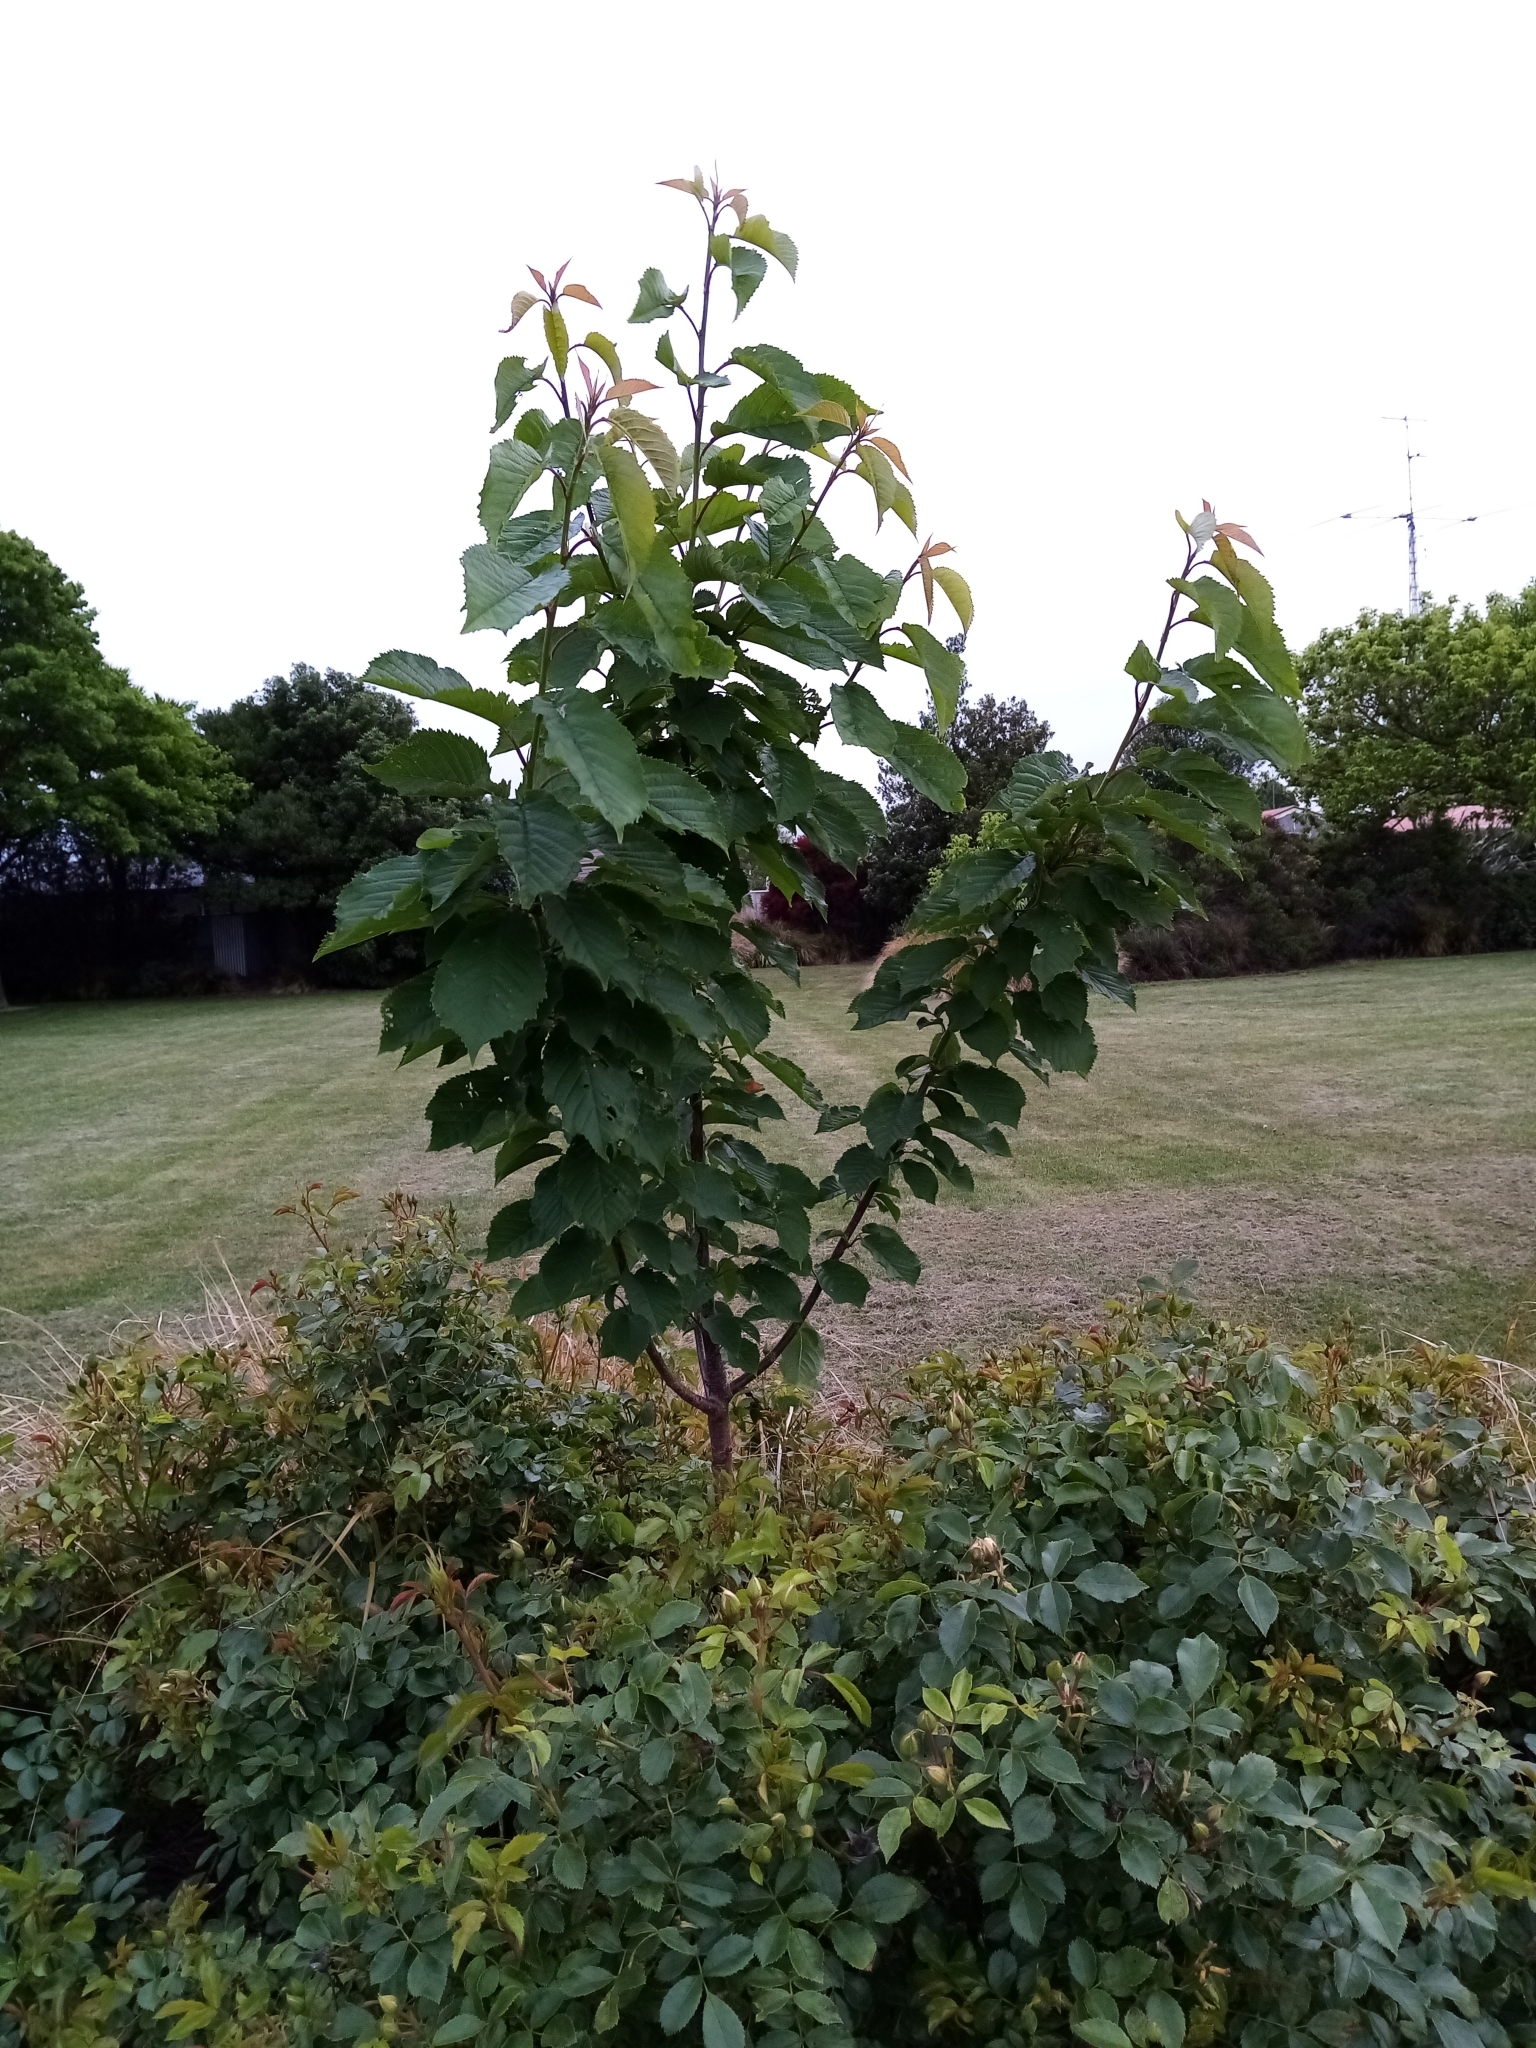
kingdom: Plantae
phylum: Tracheophyta
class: Magnoliopsida
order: Rosales
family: Rosaceae
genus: Prunus
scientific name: Prunus avium
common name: Sweet cherry
